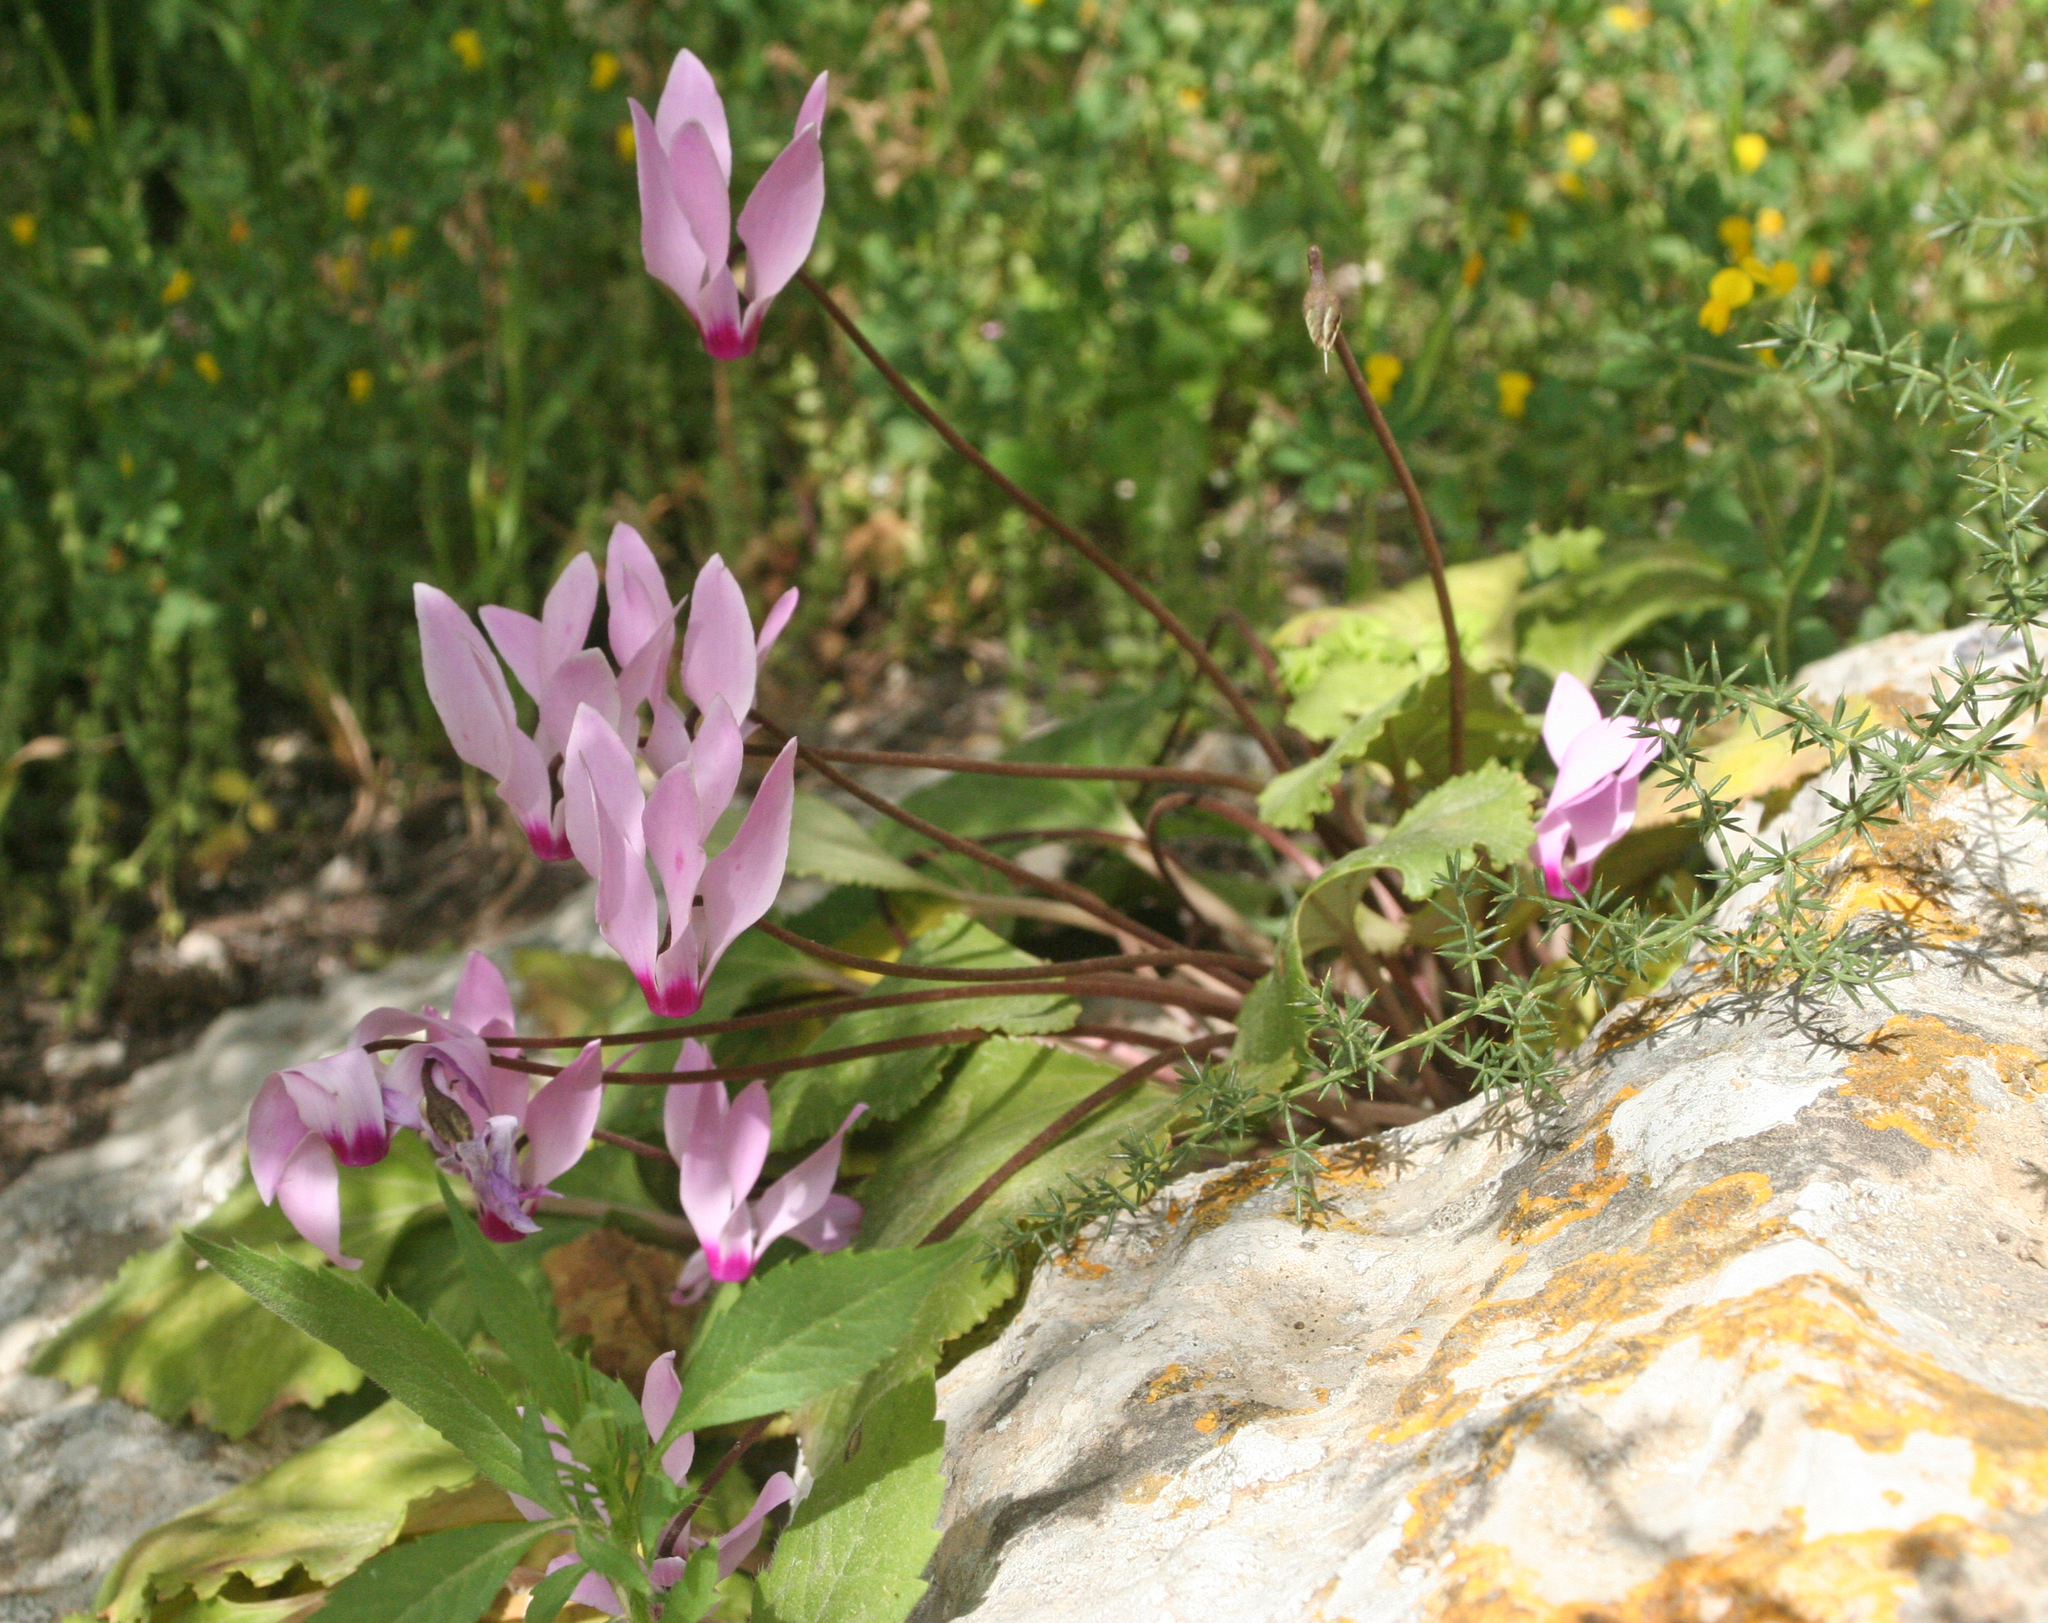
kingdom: Plantae
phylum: Tracheophyta
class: Magnoliopsida
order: Ericales
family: Primulaceae
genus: Cyclamen
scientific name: Cyclamen persicum
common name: Florist's cyclamen
